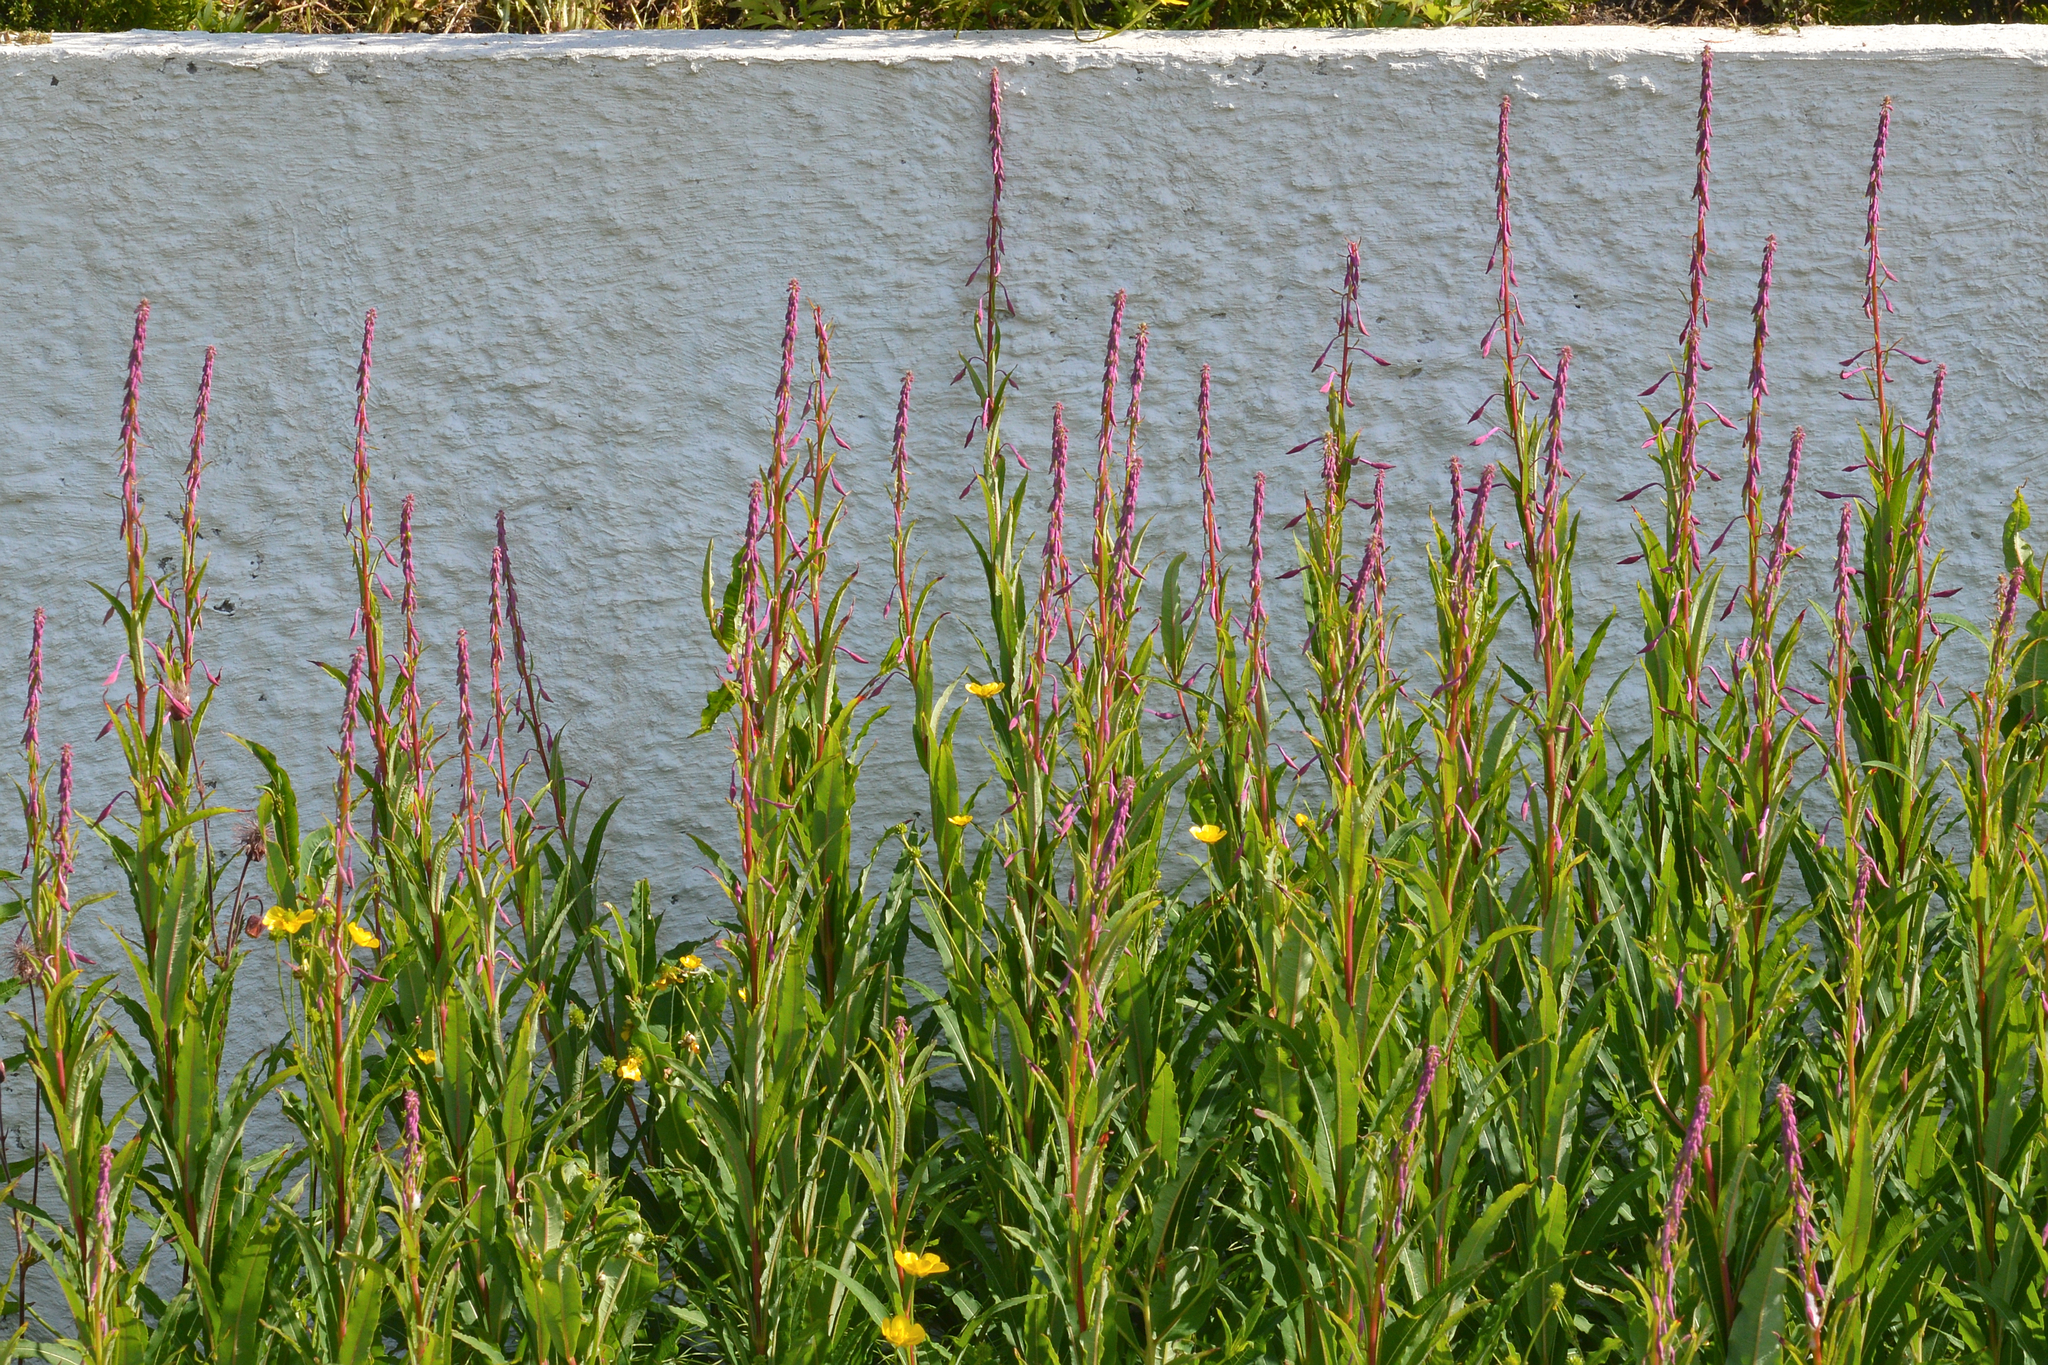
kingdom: Plantae
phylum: Tracheophyta
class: Magnoliopsida
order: Myrtales
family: Onagraceae
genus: Chamaenerion
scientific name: Chamaenerion angustifolium
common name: Fireweed
